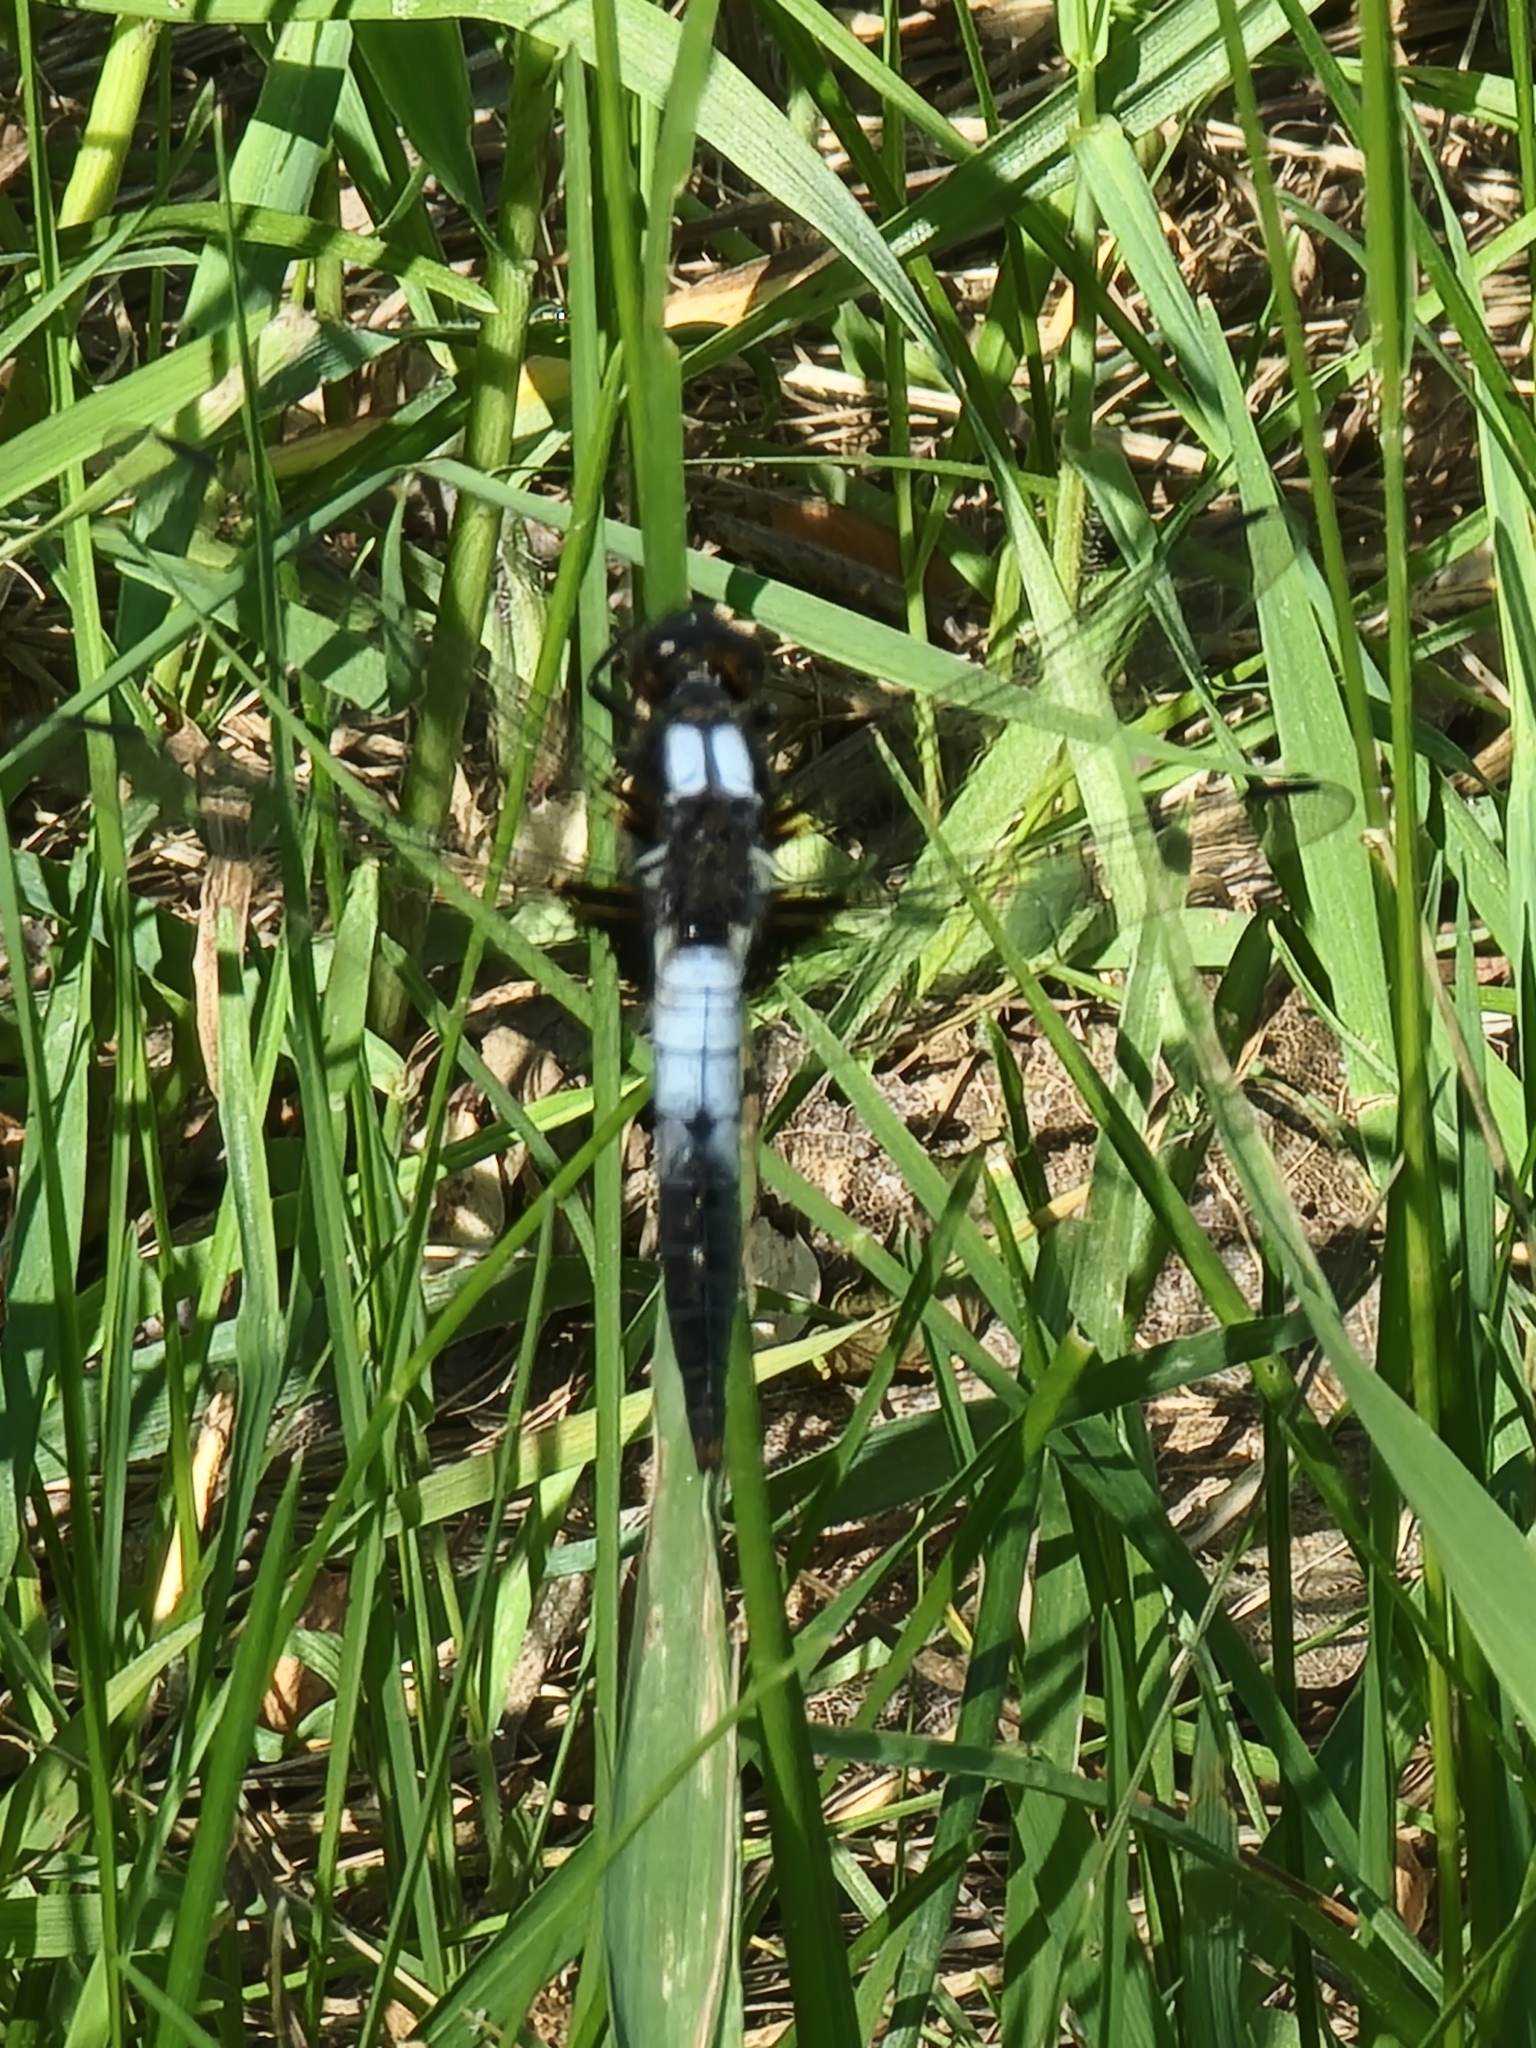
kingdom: Animalia
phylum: Arthropoda
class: Insecta
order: Odonata
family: Libellulidae
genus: Ladona
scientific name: Ladona julia
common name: Chalk-fronted corporal
